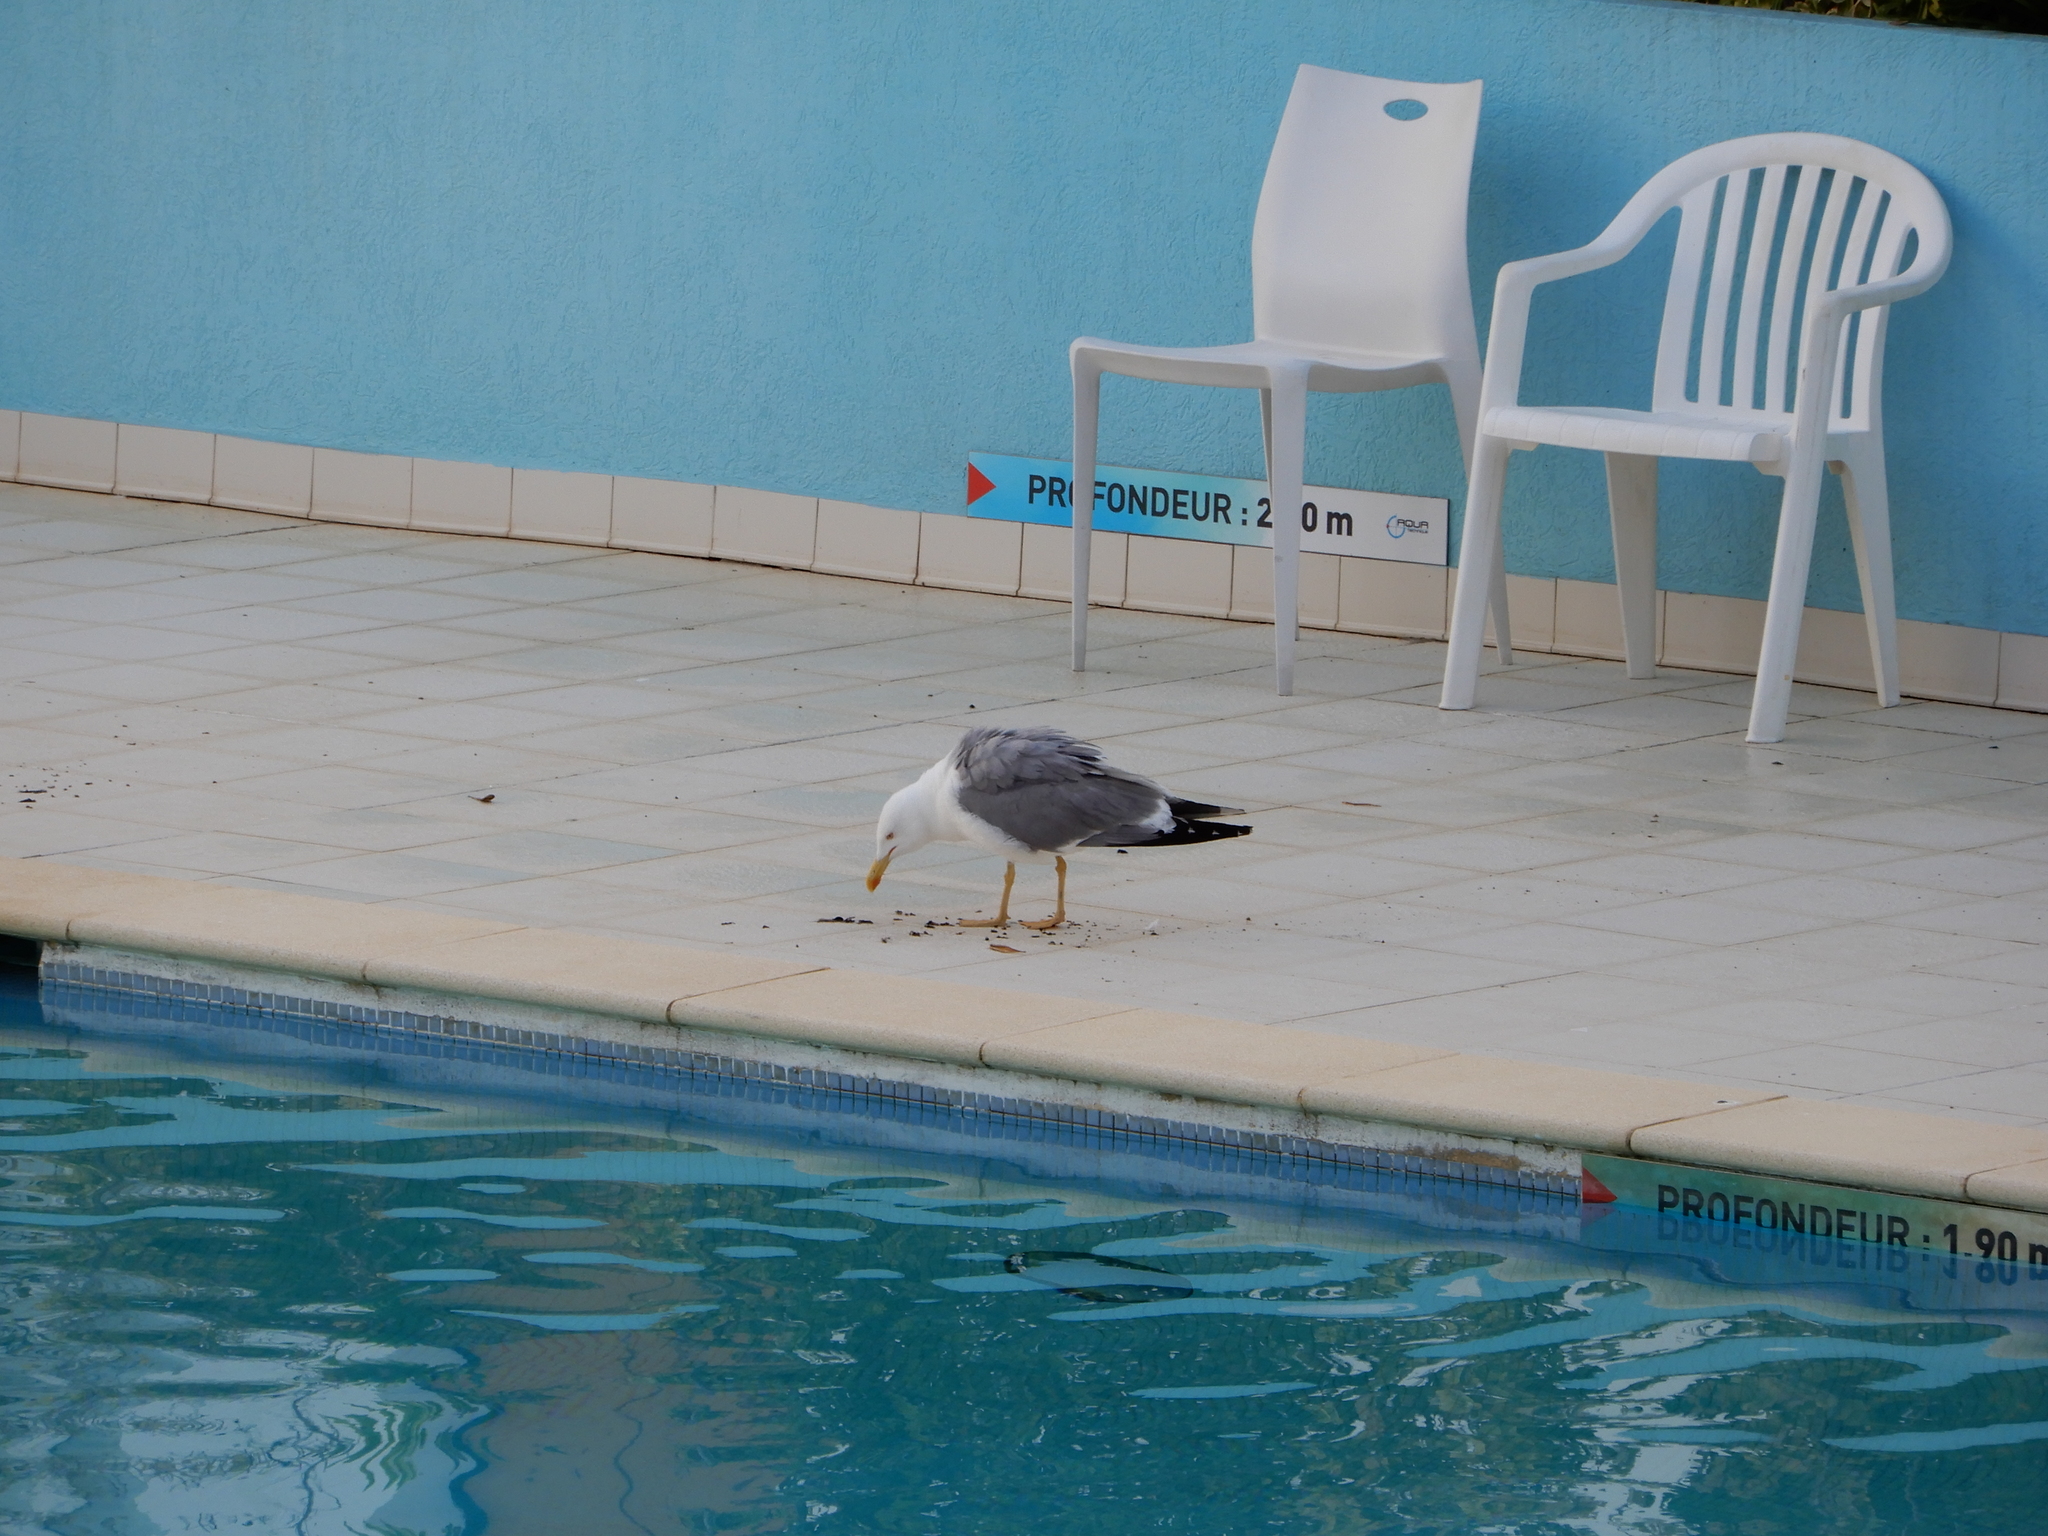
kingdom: Animalia
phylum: Chordata
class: Aves
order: Charadriiformes
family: Laridae
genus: Larus
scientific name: Larus michahellis
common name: Yellow-legged gull
